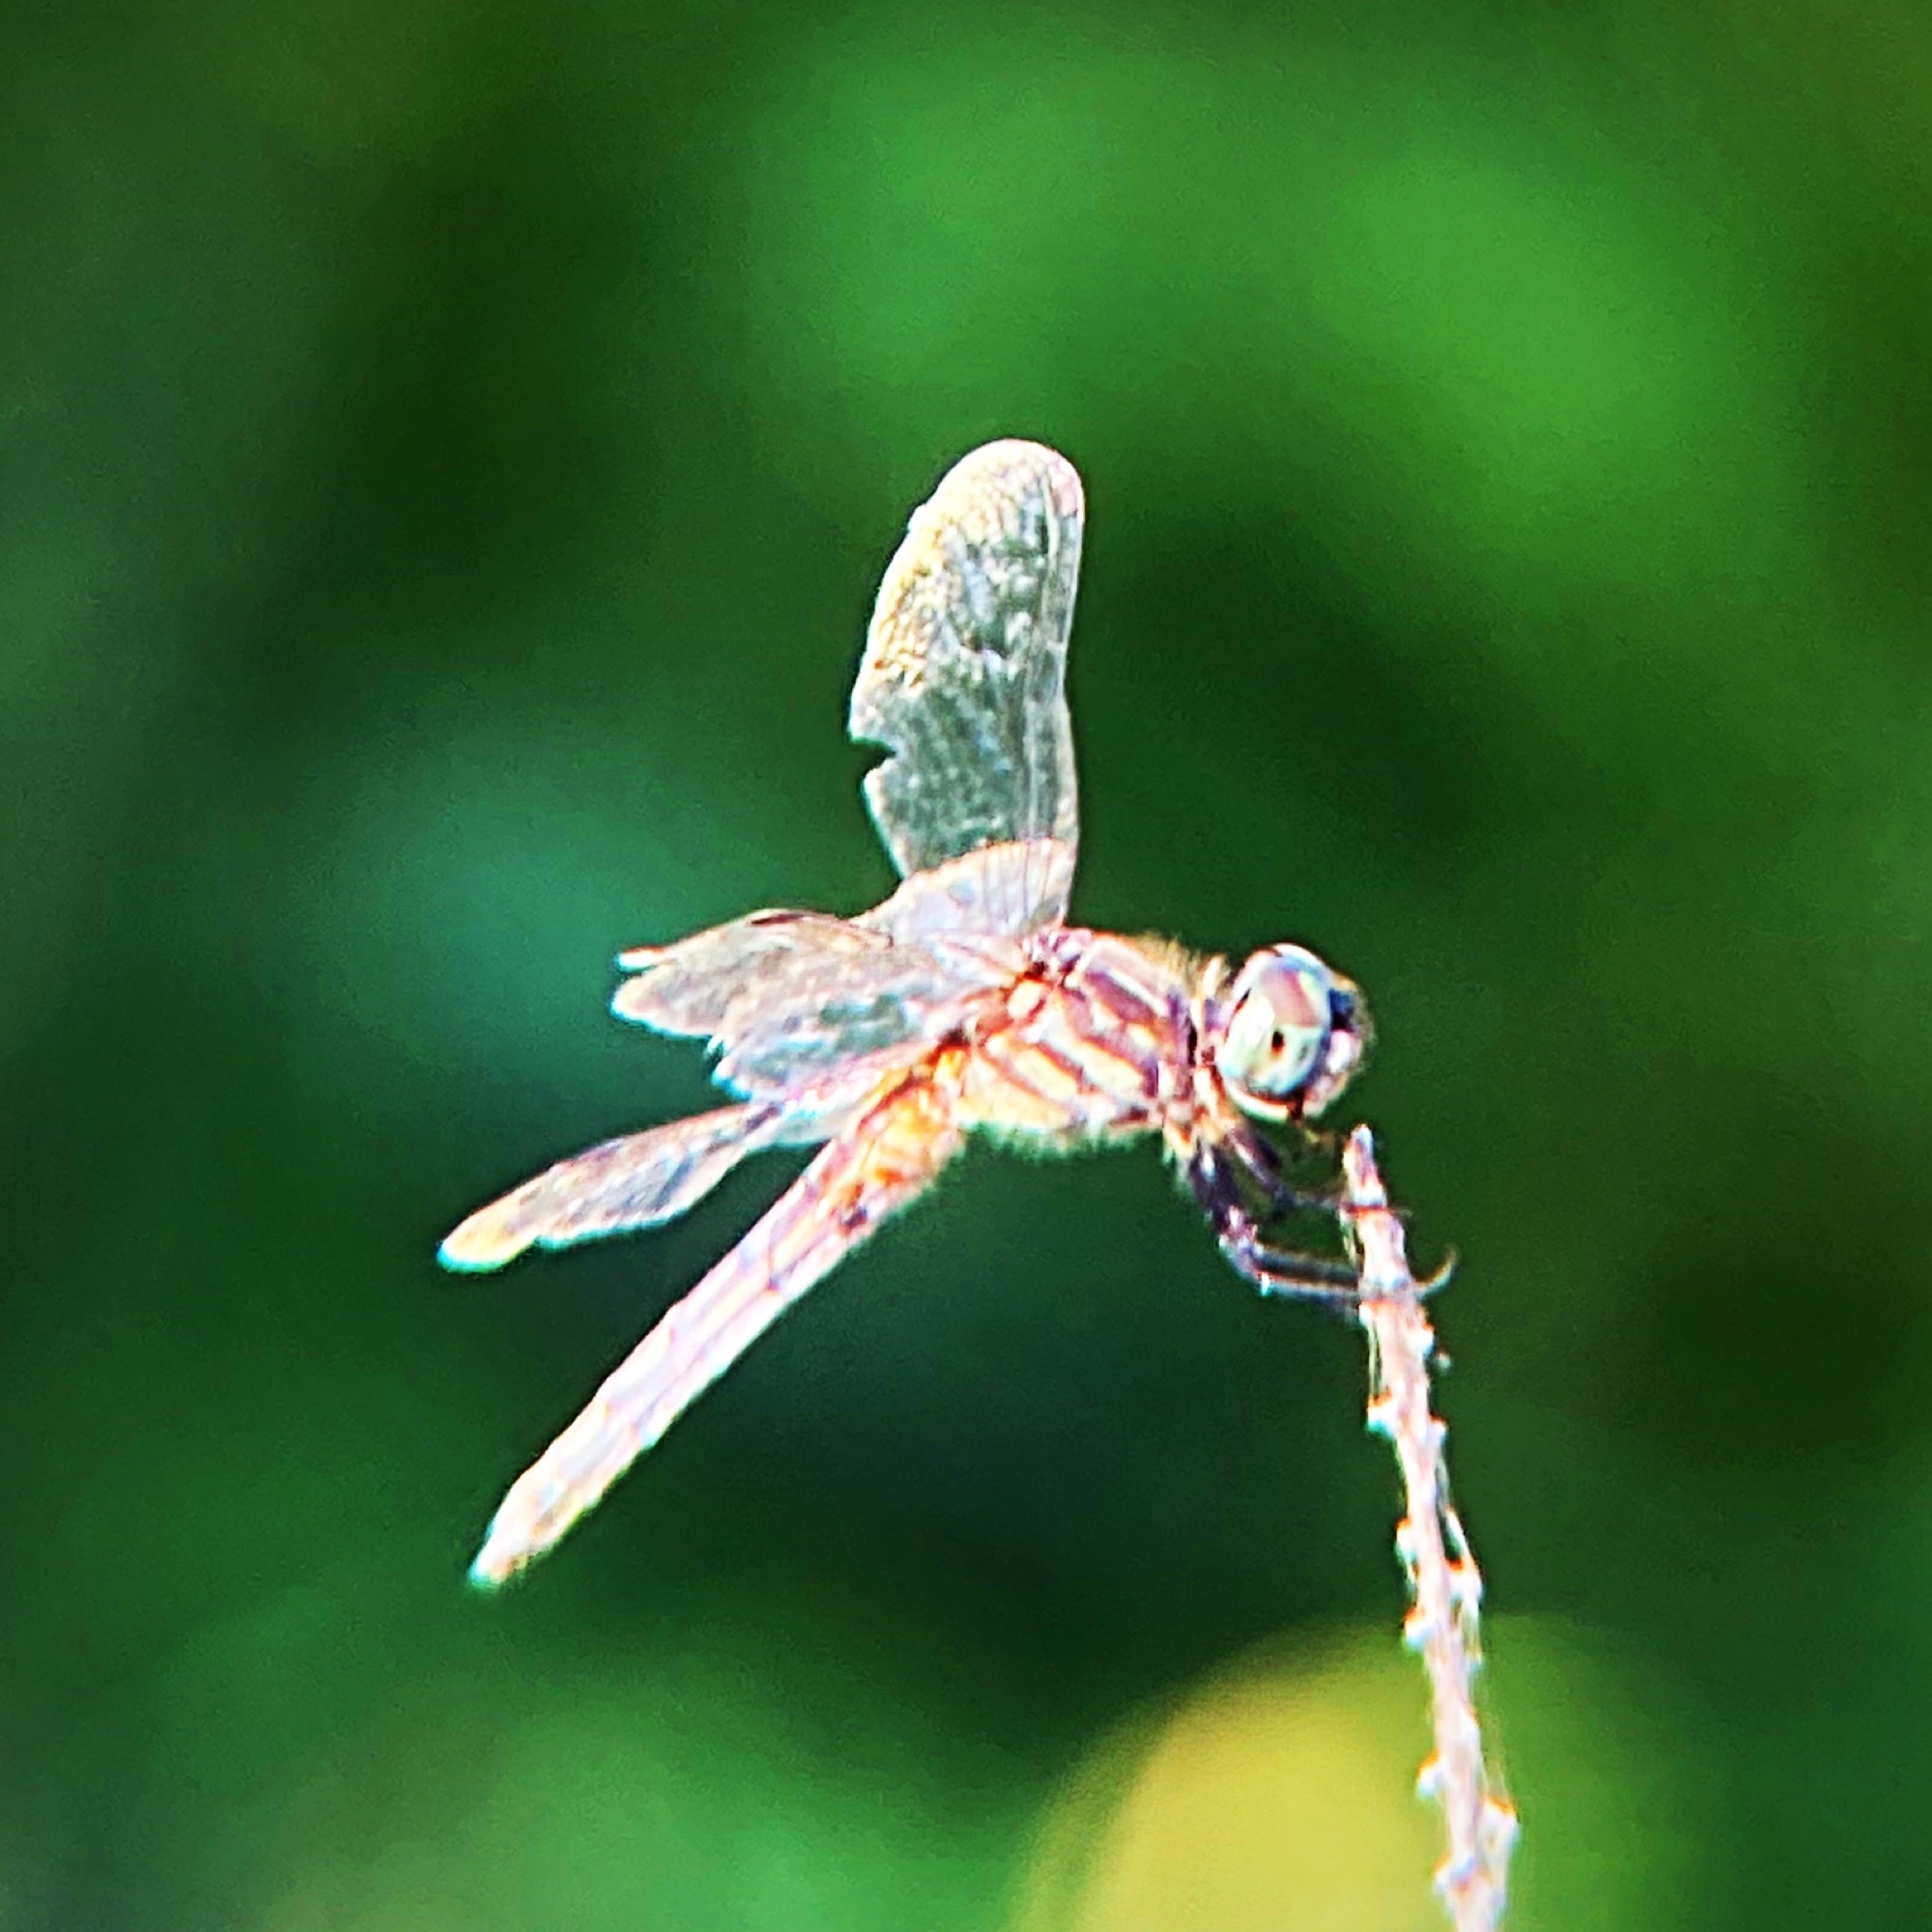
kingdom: Animalia
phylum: Arthropoda
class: Insecta
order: Odonata
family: Libellulidae
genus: Pachydiplax
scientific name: Pachydiplax longipennis
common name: Blue dasher
